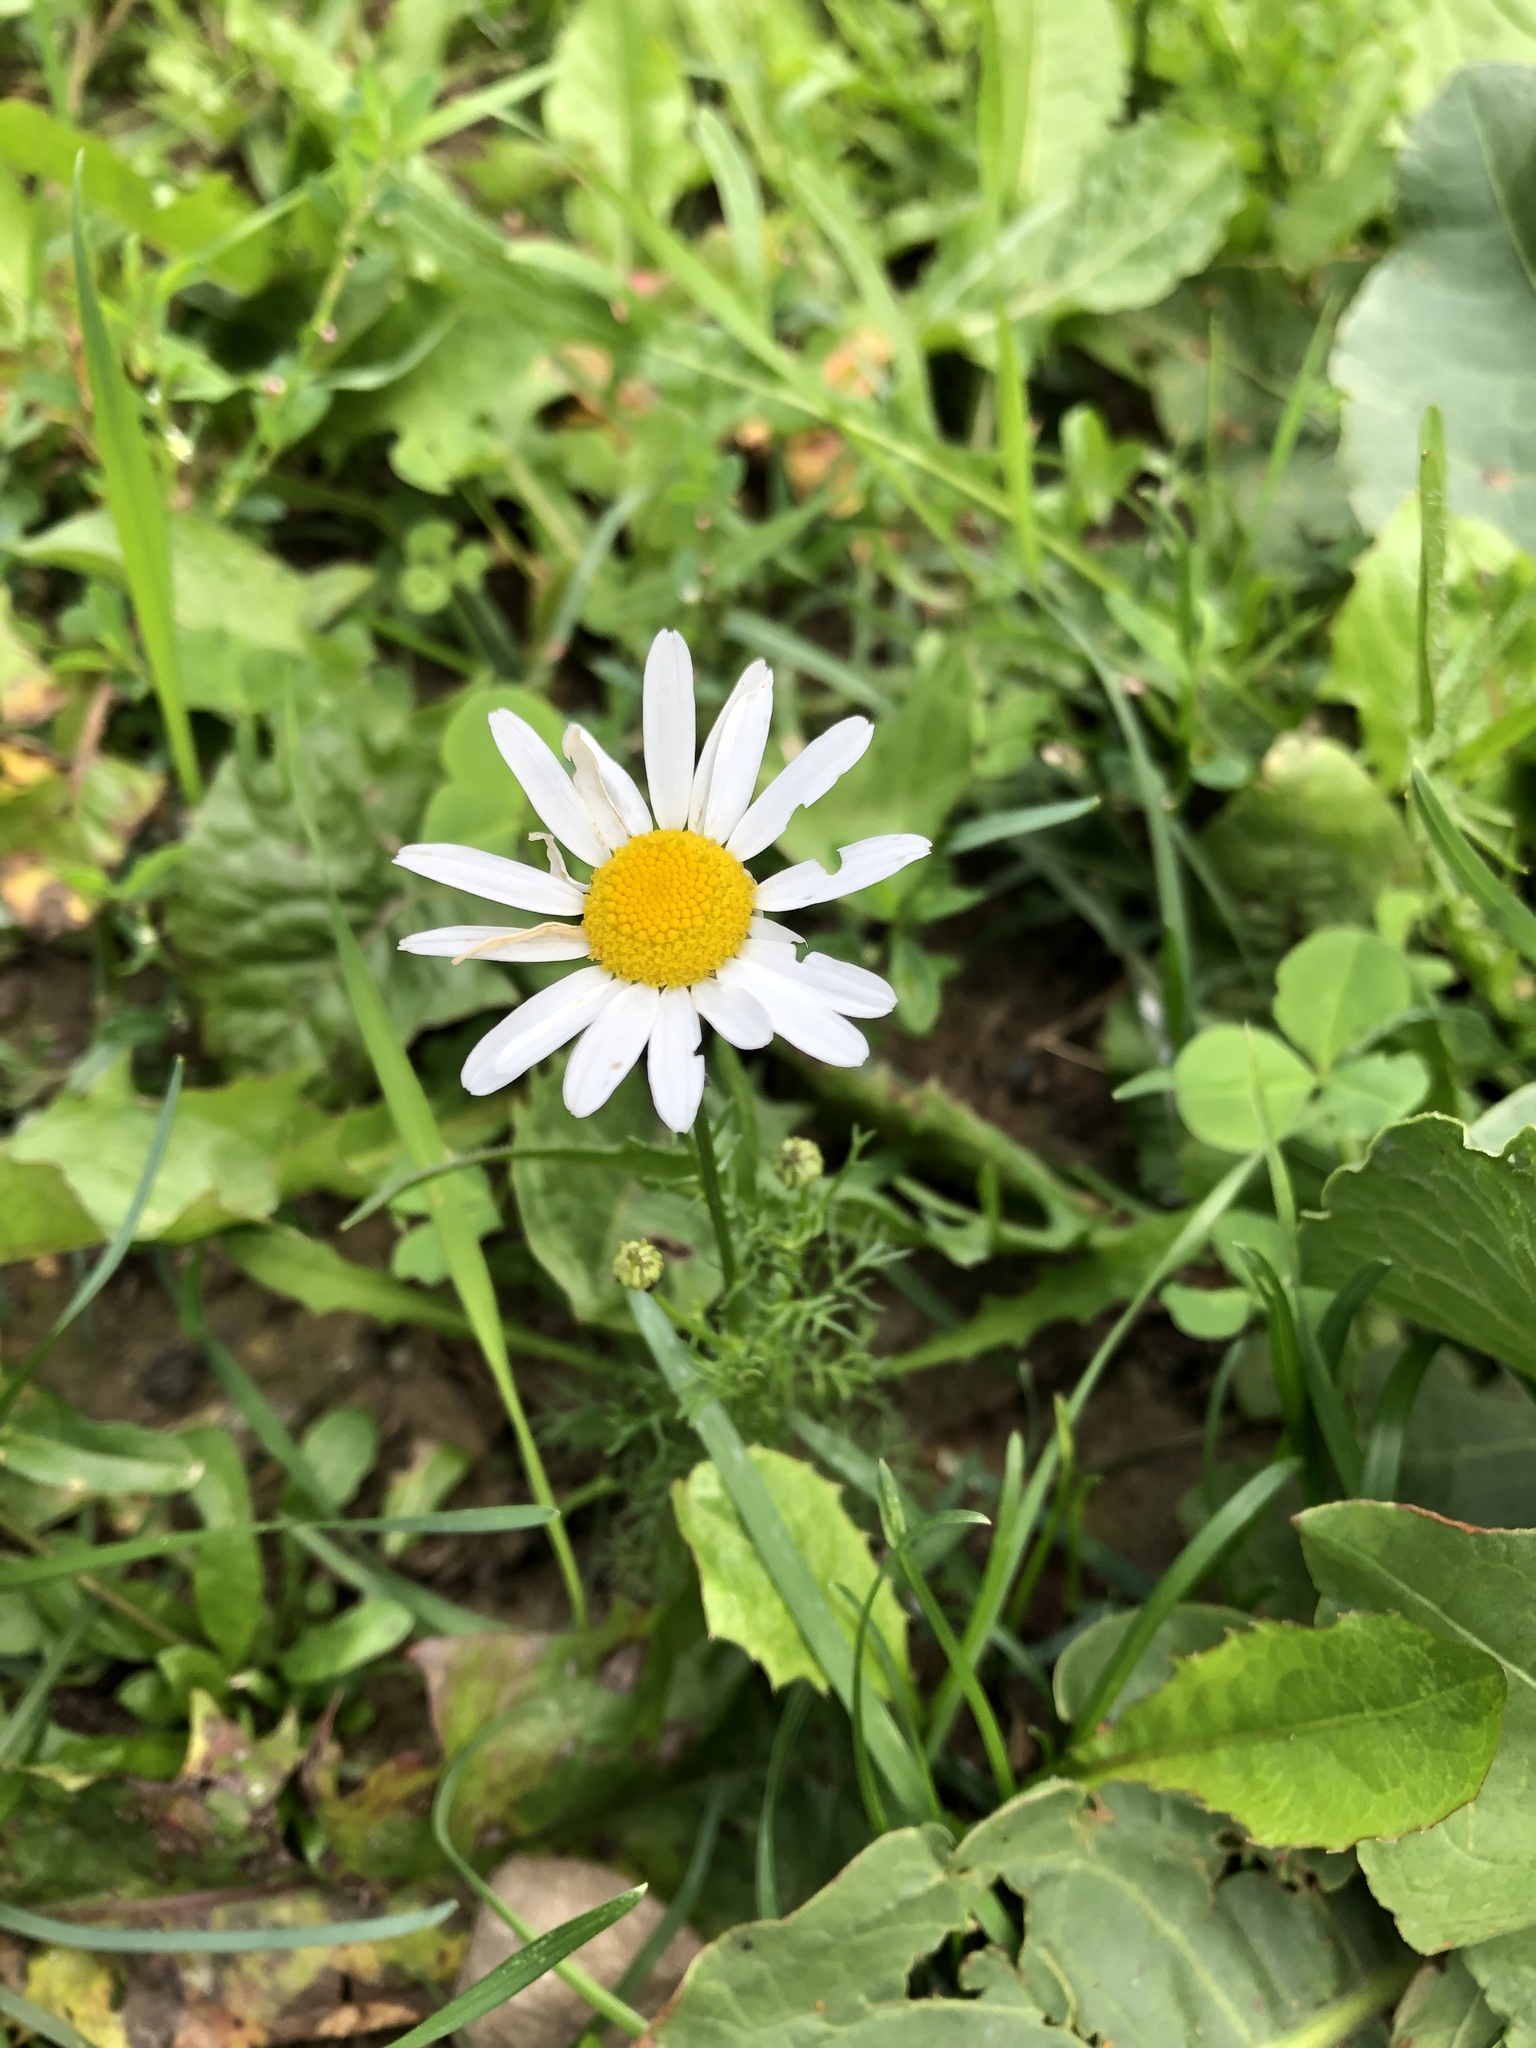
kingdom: Plantae
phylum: Tracheophyta
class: Magnoliopsida
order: Asterales
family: Asteraceae
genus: Tripleurospermum
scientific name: Tripleurospermum inodorum
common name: Scentless mayweed
